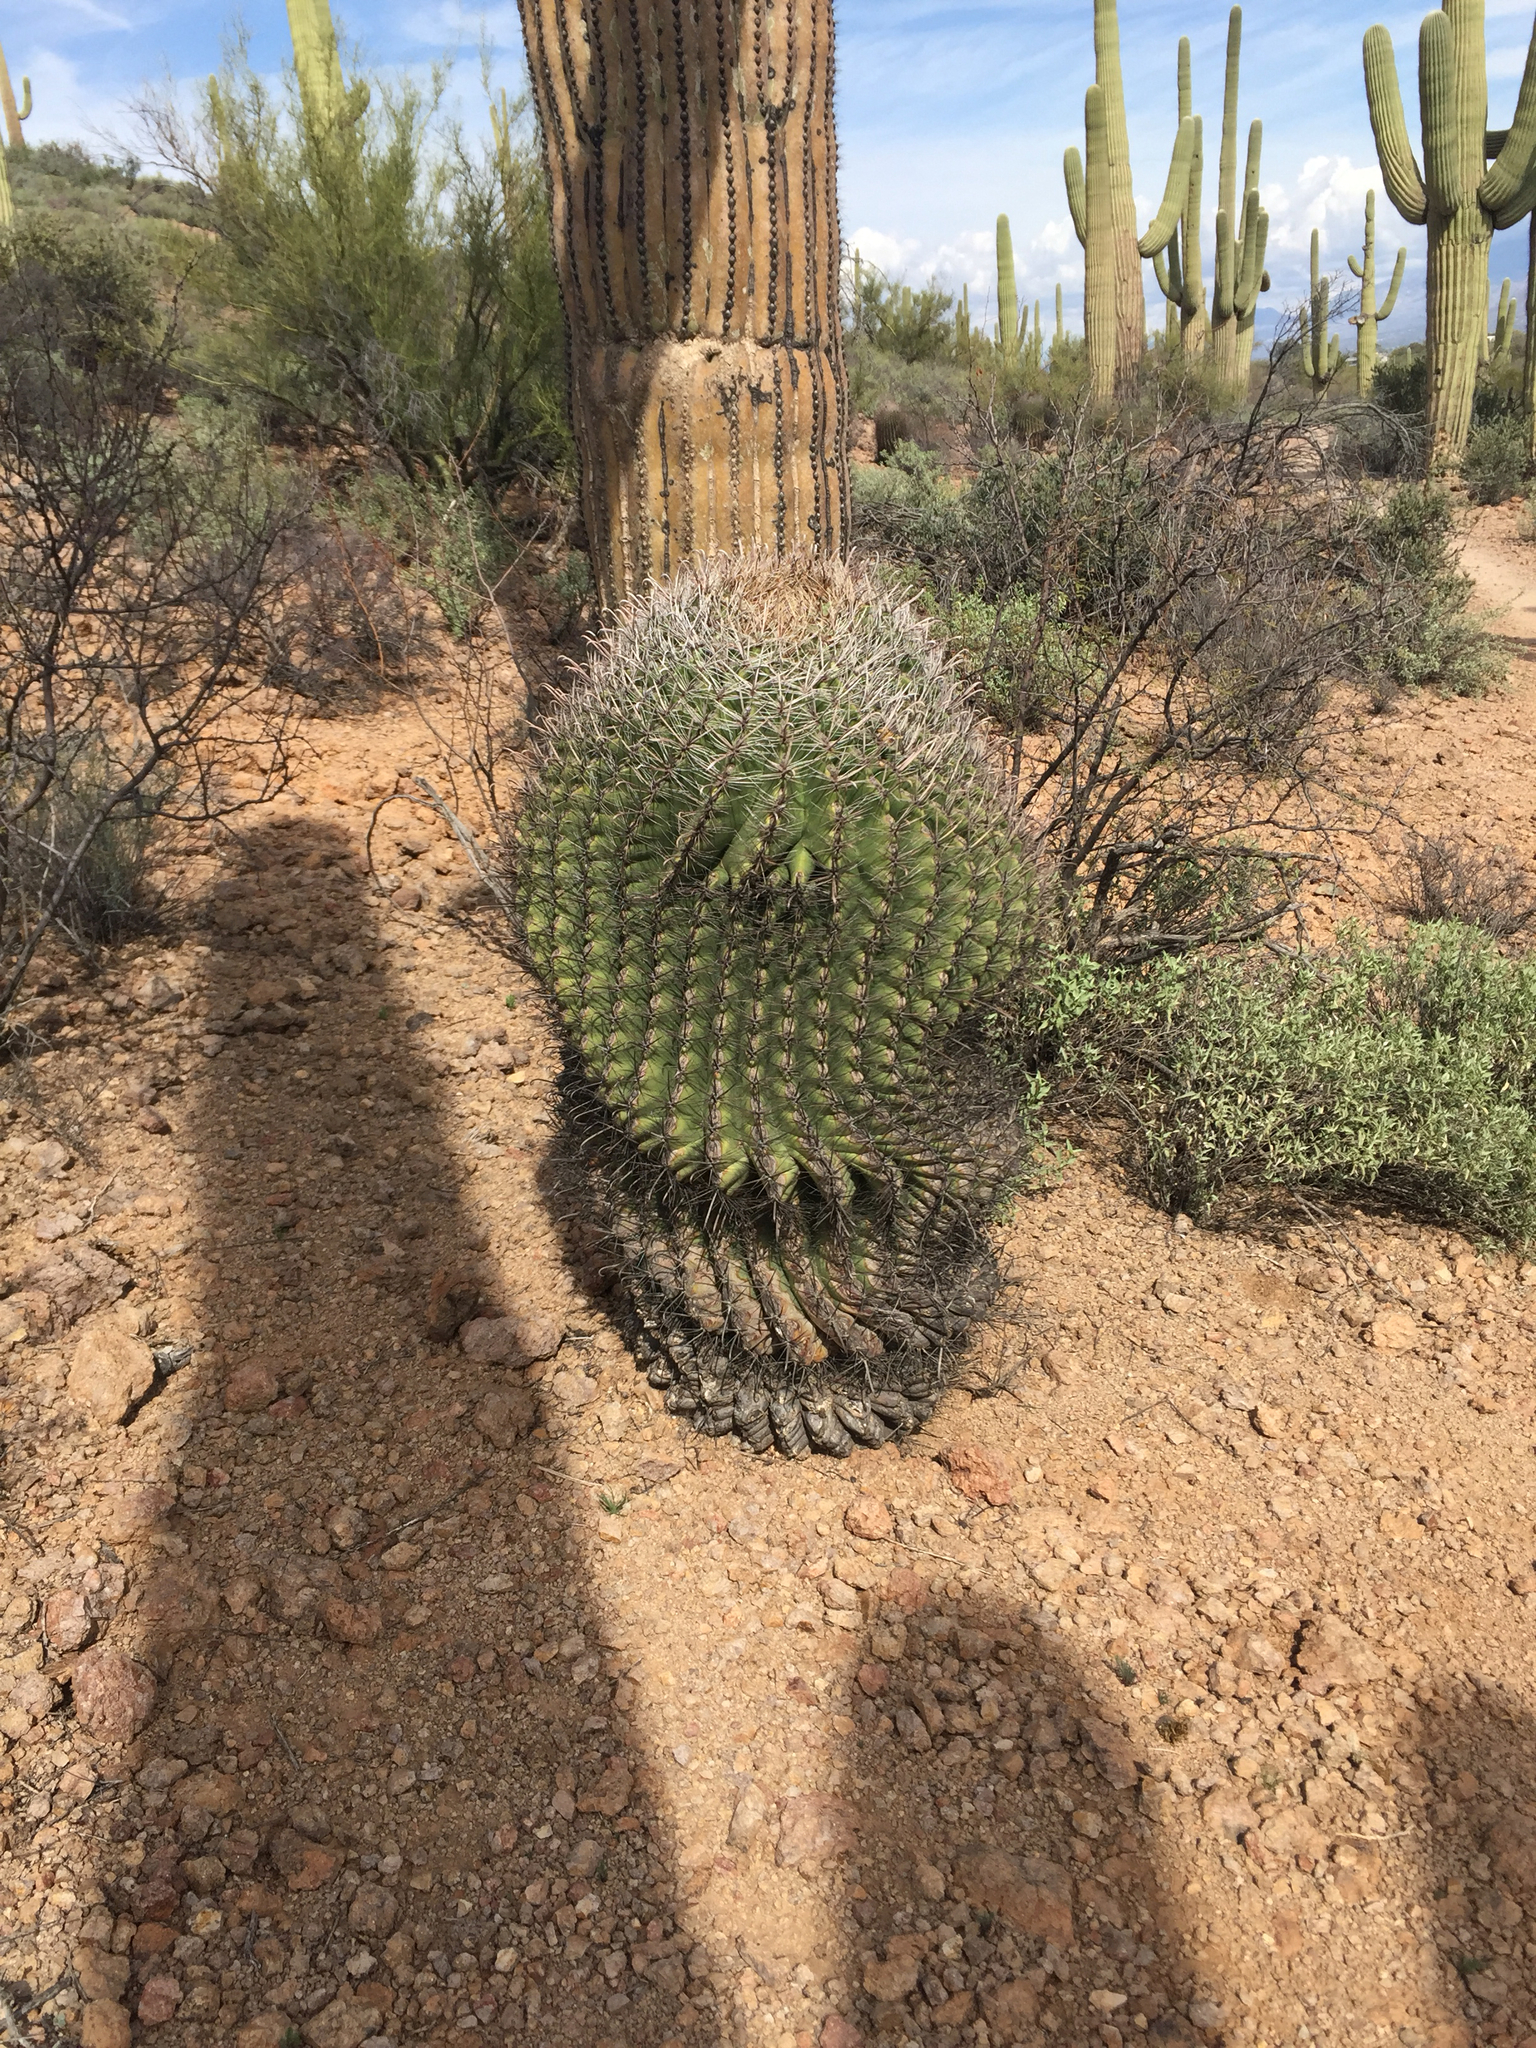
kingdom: Plantae
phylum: Tracheophyta
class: Magnoliopsida
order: Caryophyllales
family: Cactaceae
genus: Ferocactus
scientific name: Ferocactus wislizeni
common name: Candy barrel cactus
